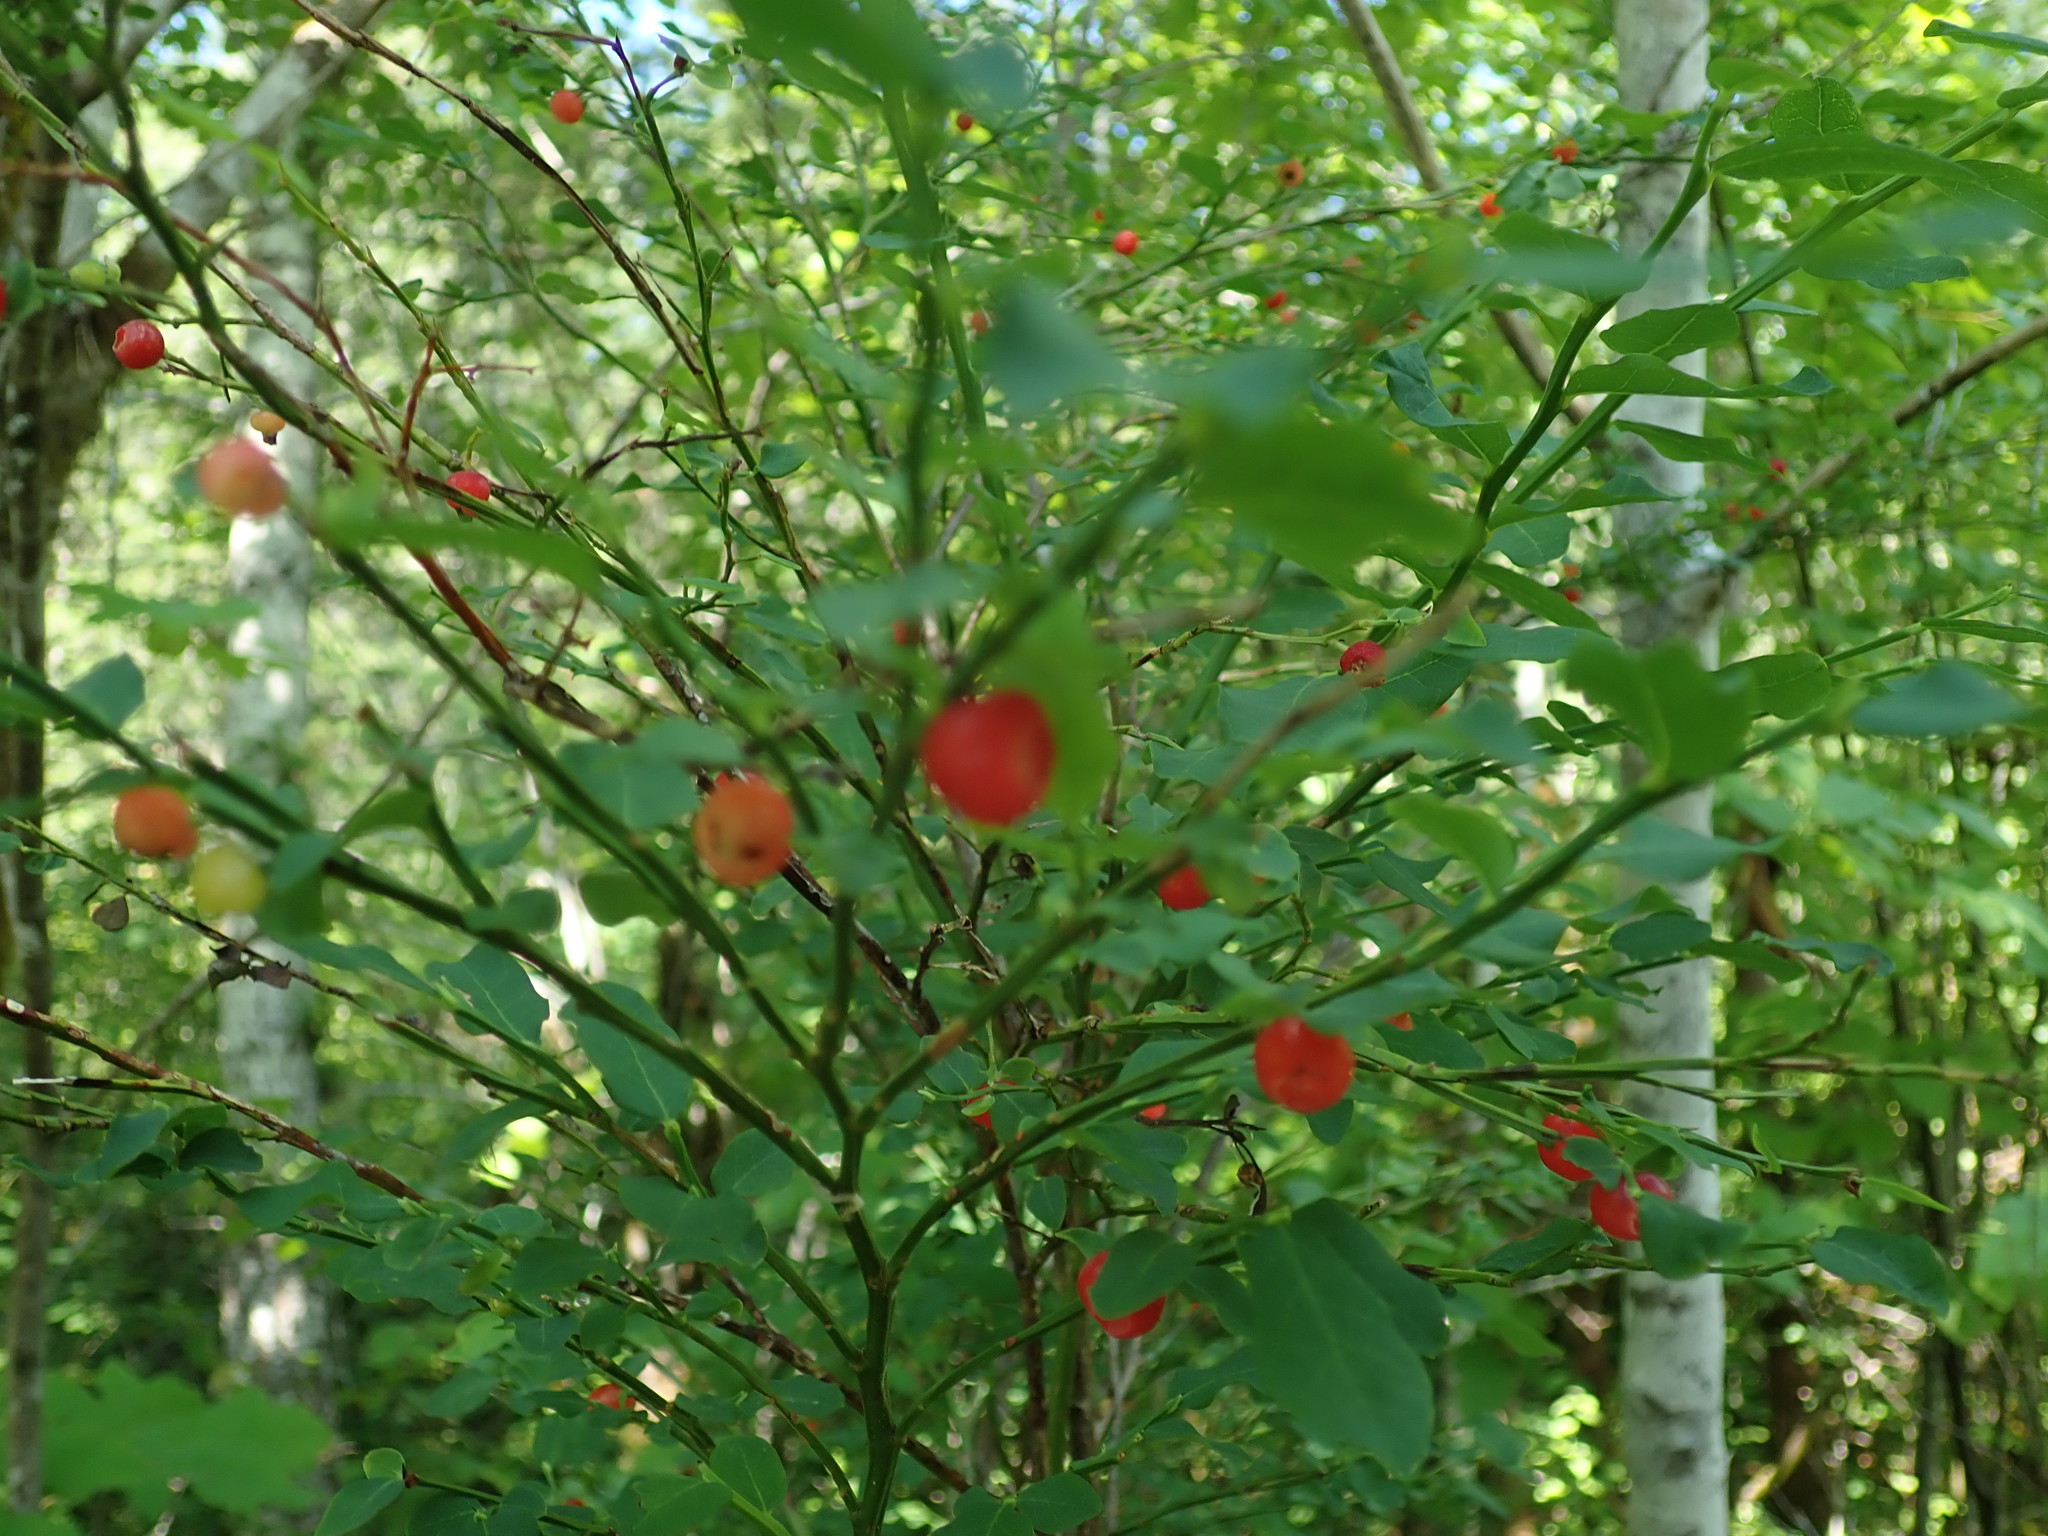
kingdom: Plantae
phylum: Tracheophyta
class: Magnoliopsida
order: Ericales
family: Ericaceae
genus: Vaccinium
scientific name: Vaccinium parvifolium
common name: Red-huckleberry
